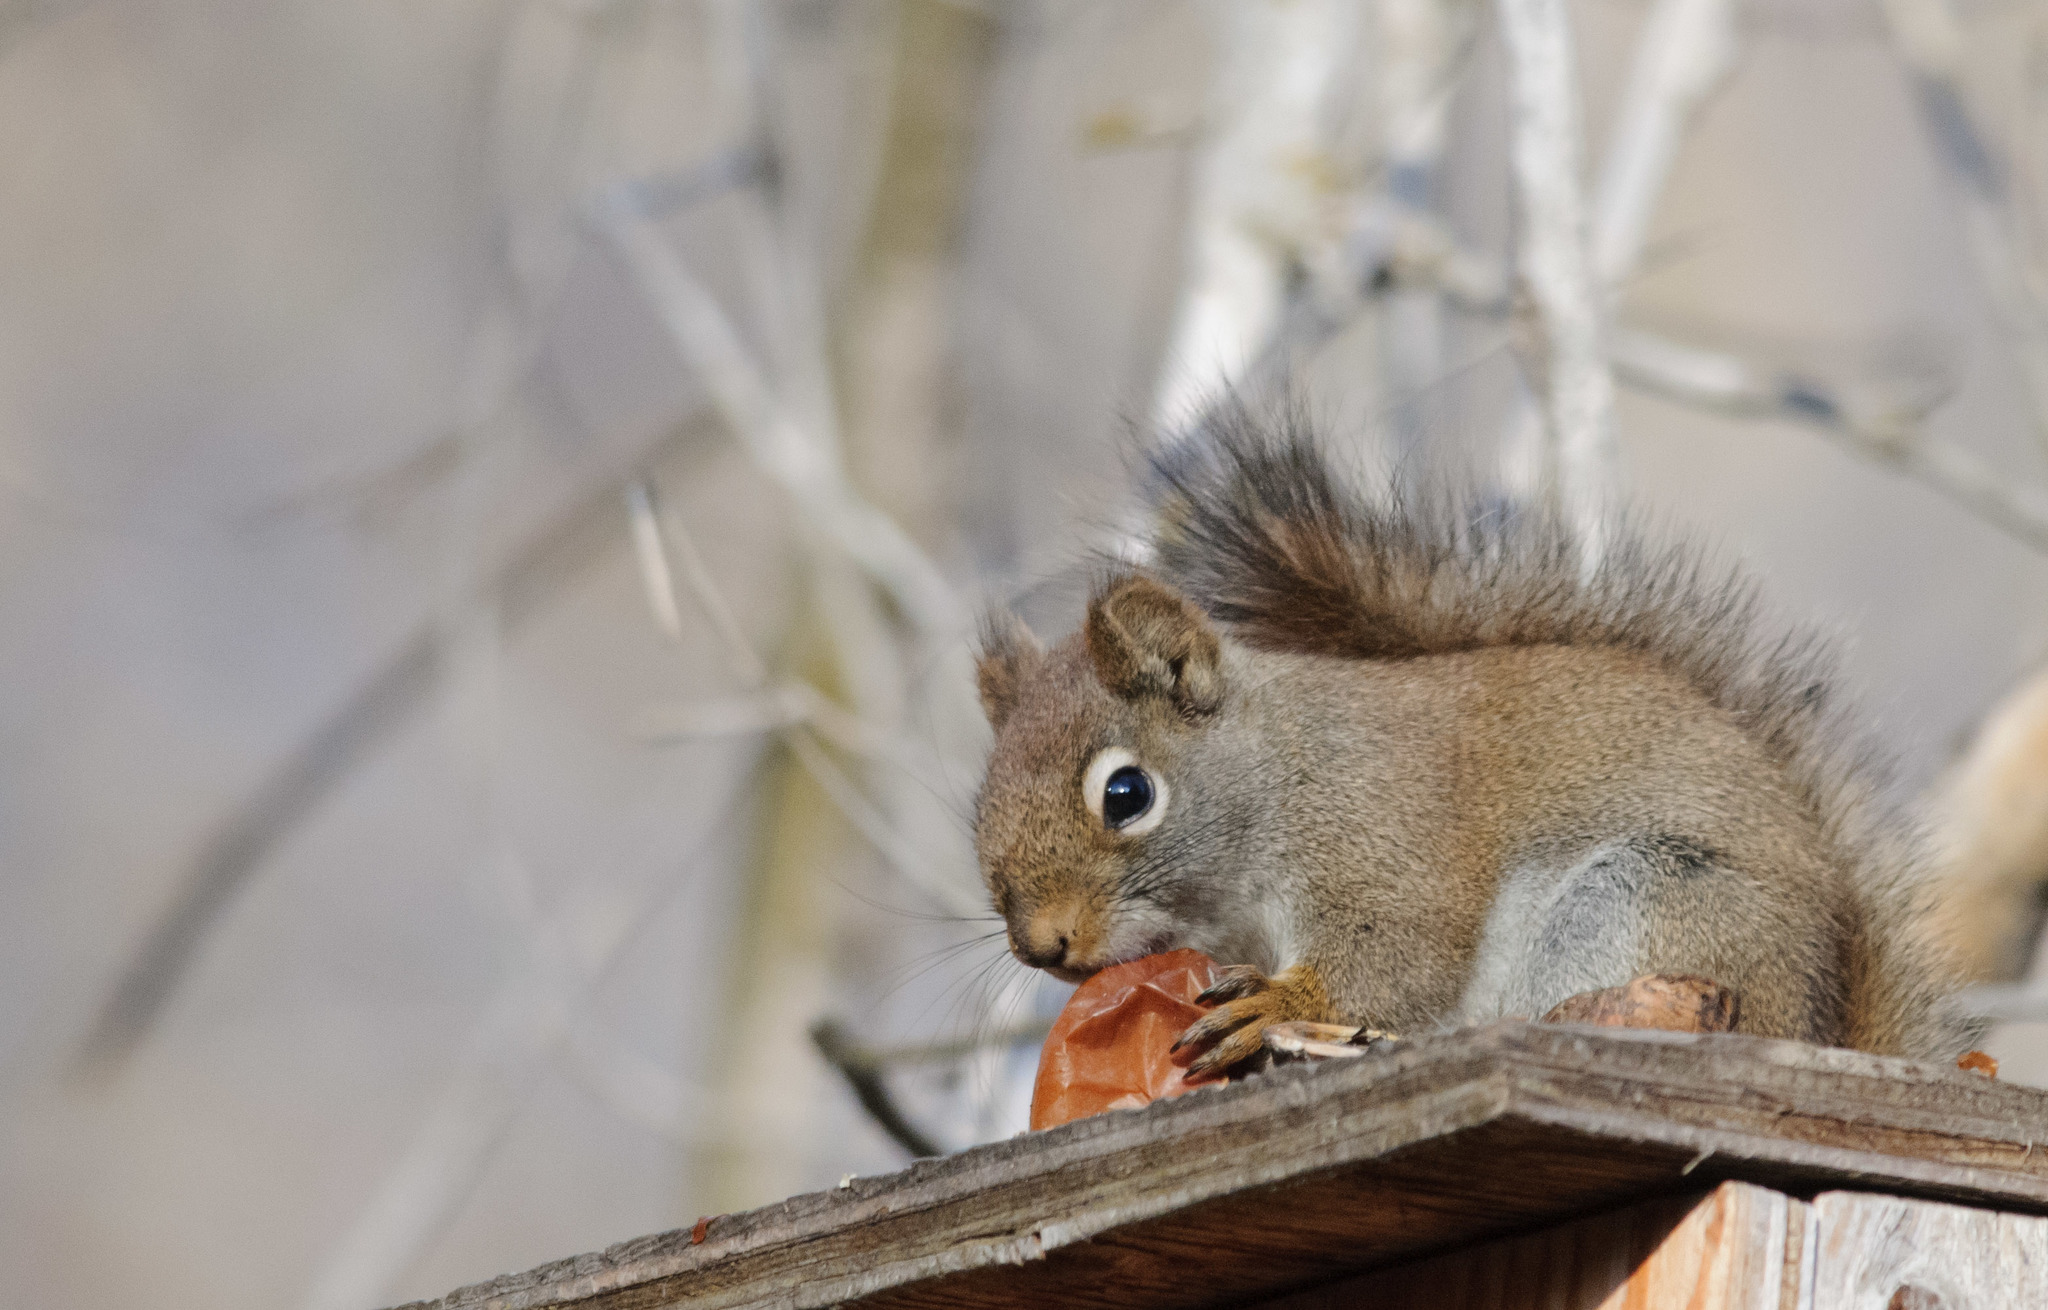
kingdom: Animalia
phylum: Chordata
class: Mammalia
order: Rodentia
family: Sciuridae
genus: Tamiasciurus
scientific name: Tamiasciurus hudsonicus
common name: Red squirrel
